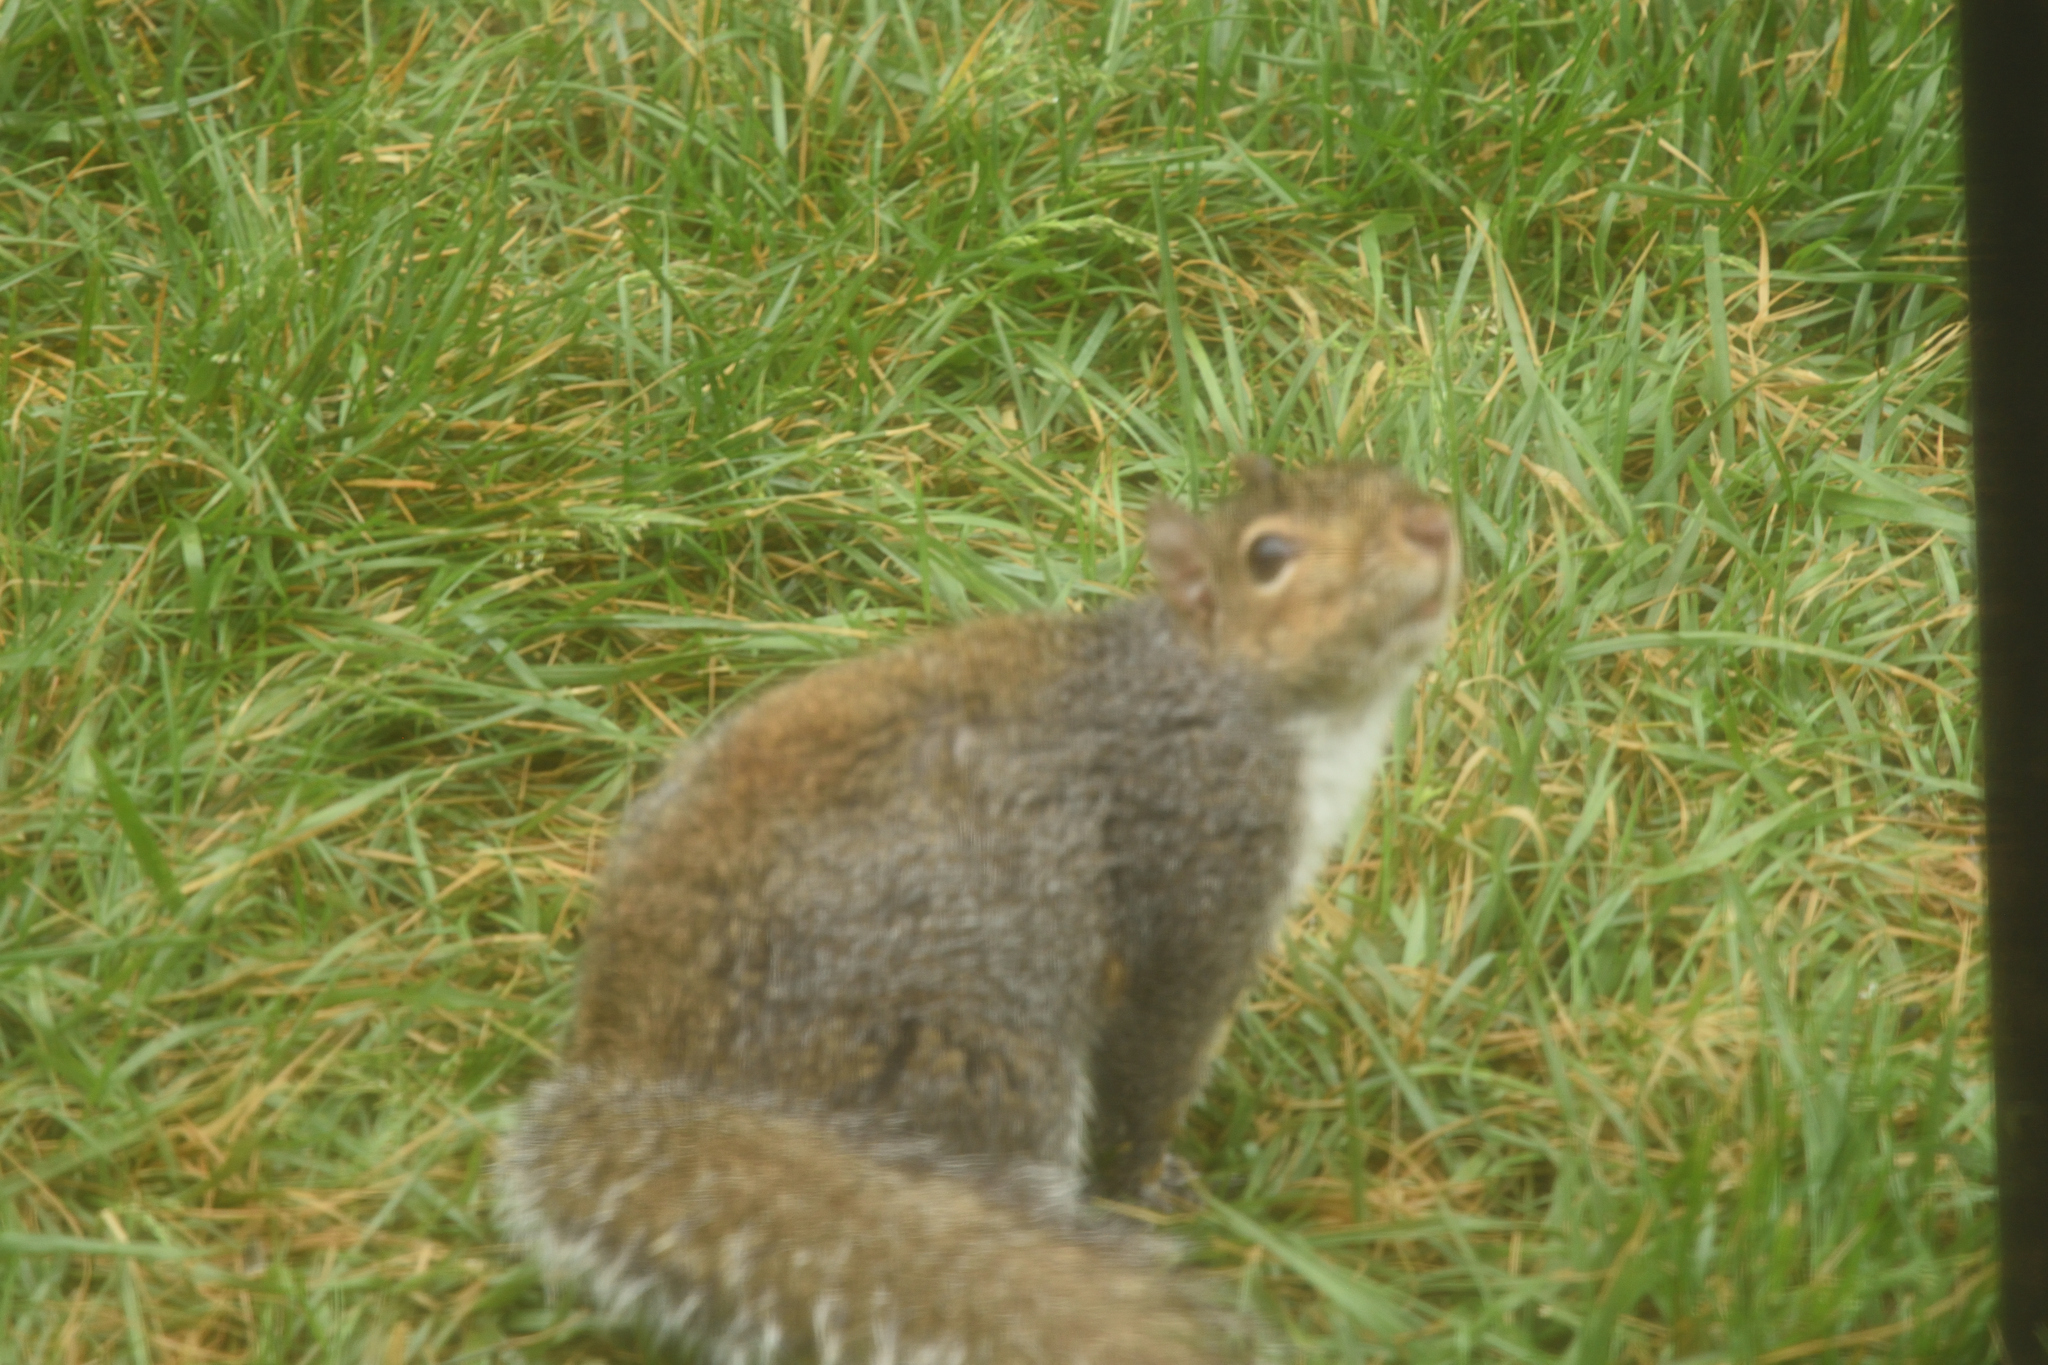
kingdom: Animalia
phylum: Chordata
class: Mammalia
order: Rodentia
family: Sciuridae
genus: Sciurus
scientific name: Sciurus carolinensis
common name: Eastern gray squirrel
